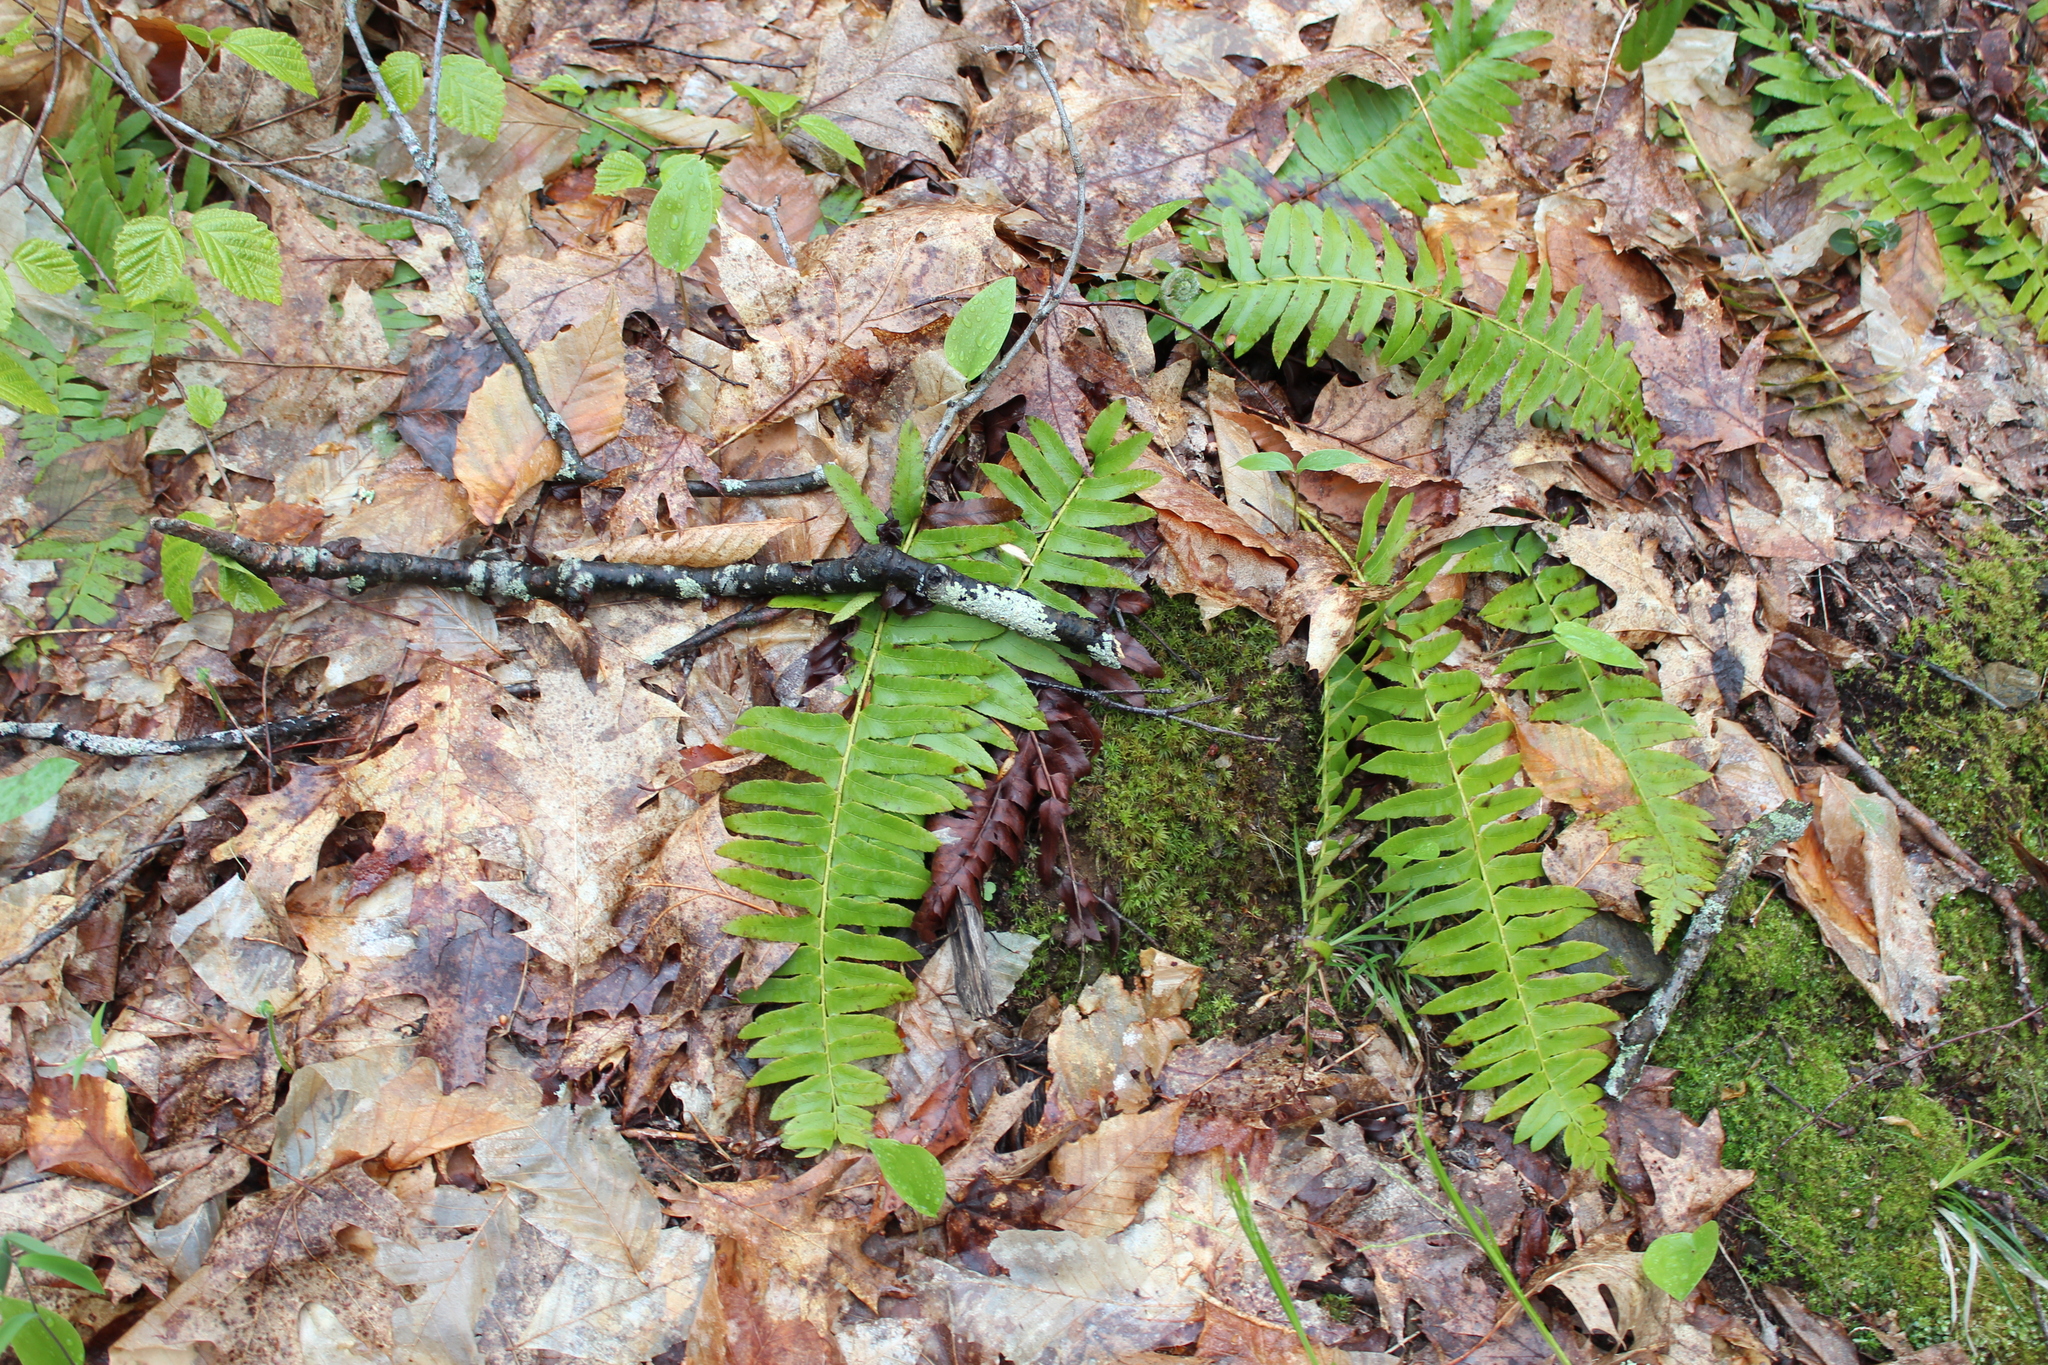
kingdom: Plantae
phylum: Tracheophyta
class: Polypodiopsida
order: Polypodiales
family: Dryopteridaceae
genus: Polystichum
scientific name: Polystichum acrostichoides
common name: Christmas fern
